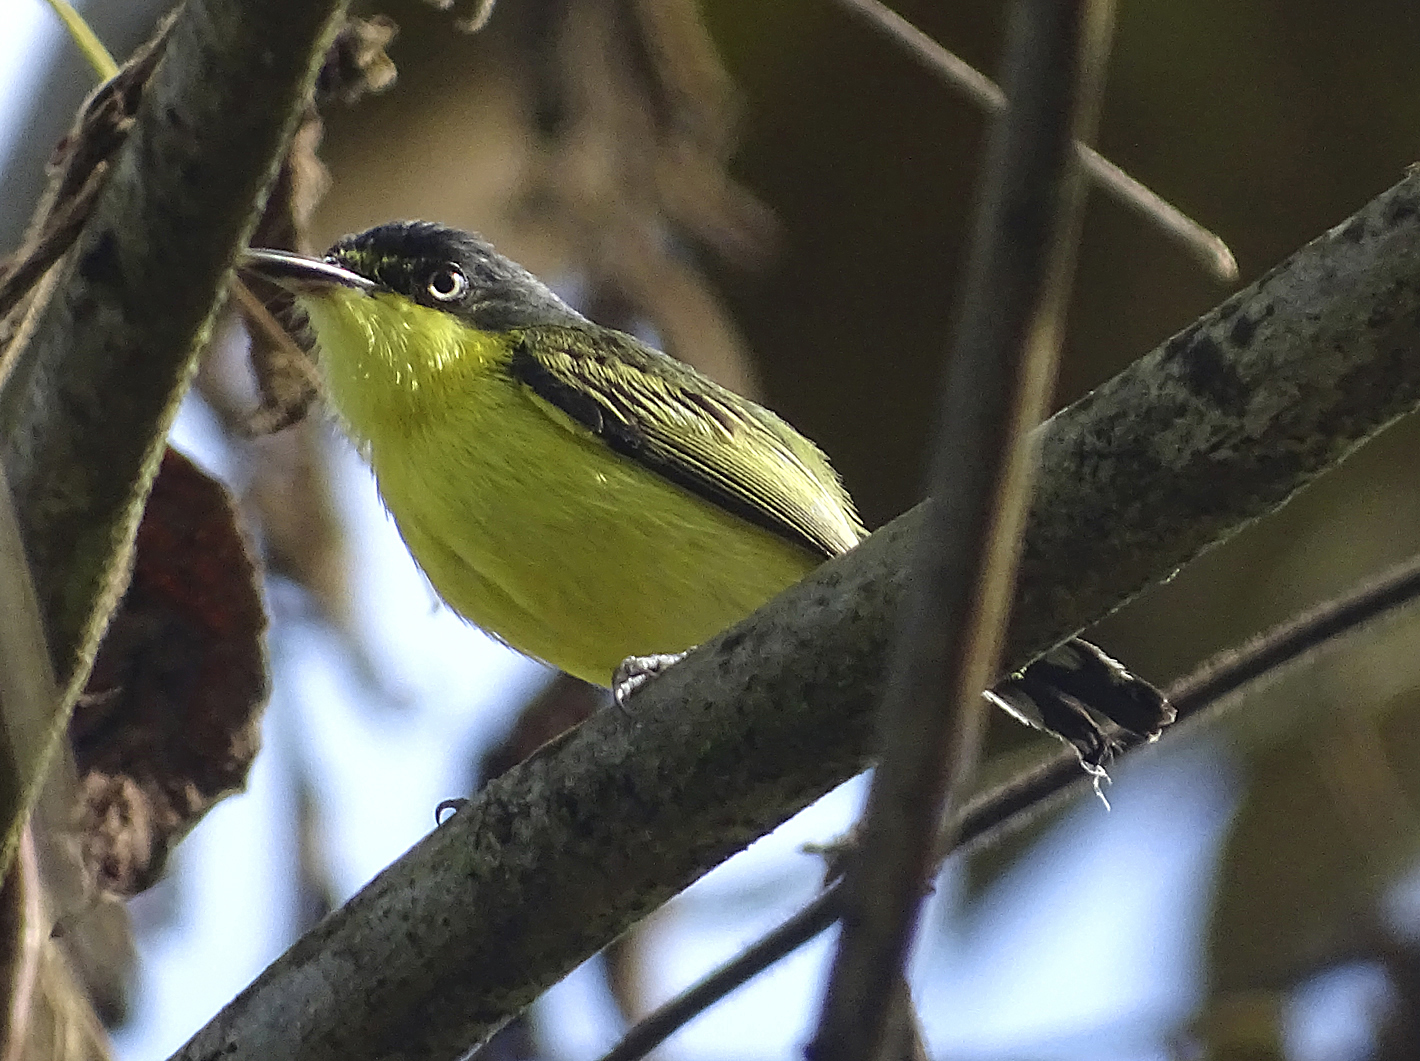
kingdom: Animalia
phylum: Chordata
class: Aves
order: Passeriformes
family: Tyrannidae
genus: Todirostrum
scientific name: Todirostrum cinereum
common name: Common tody-flycatcher
